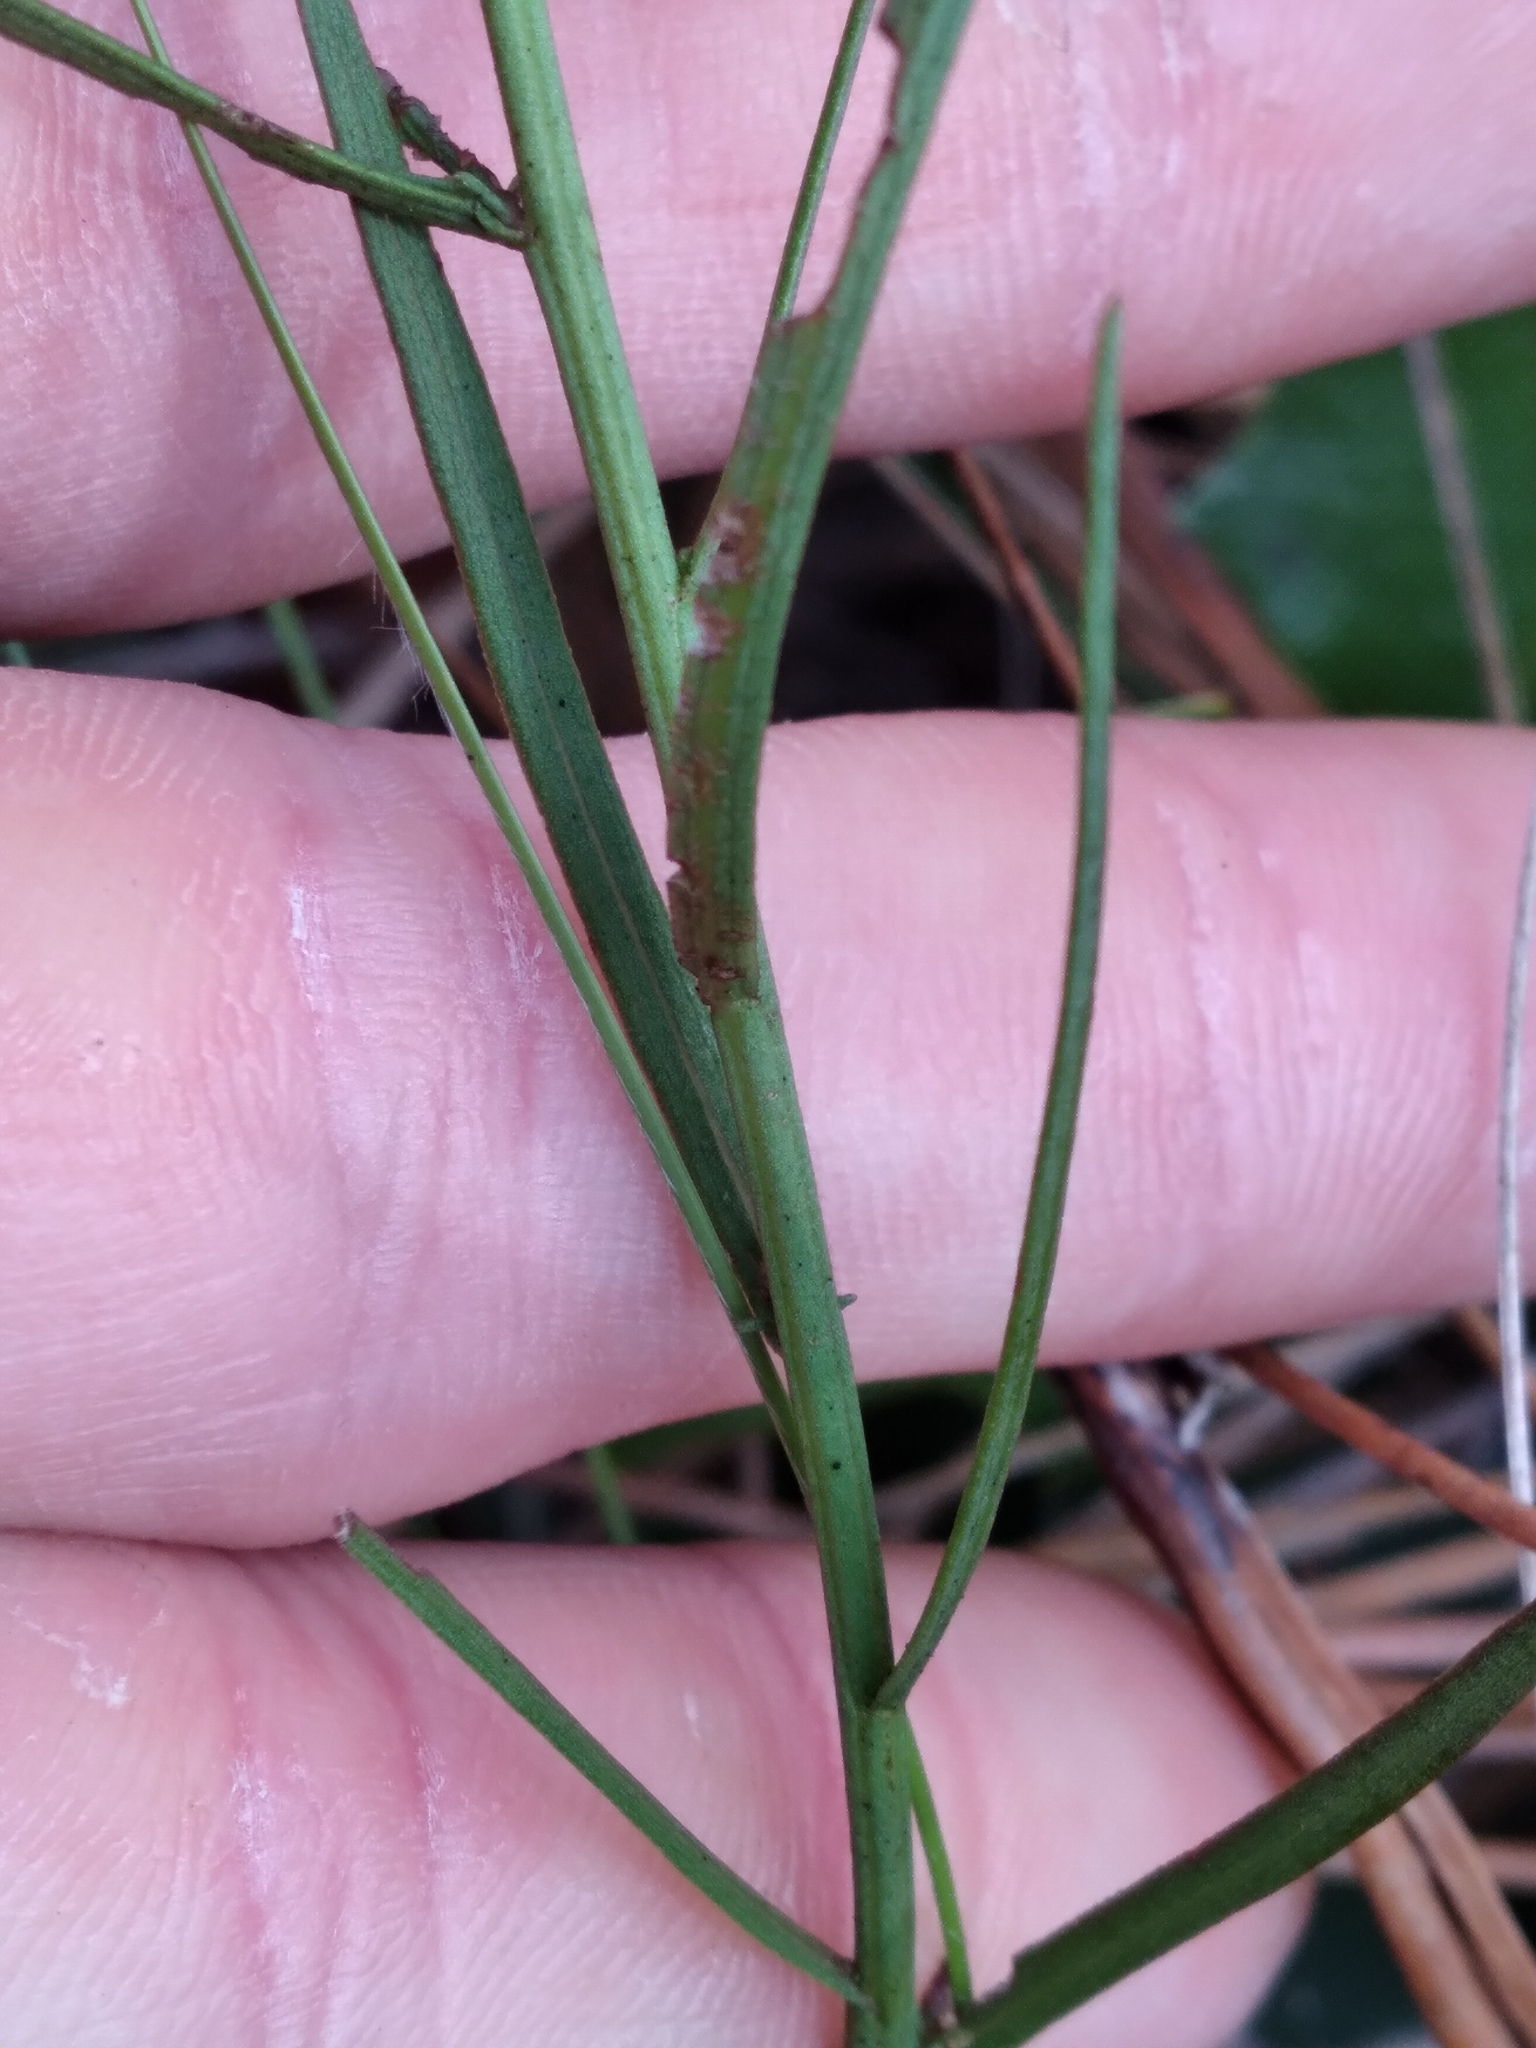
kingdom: Plantae
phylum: Tracheophyta
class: Magnoliopsida
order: Asterales
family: Asteraceae
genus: Symphyotrichum
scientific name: Symphyotrichum dumosum
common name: Bushy aster
